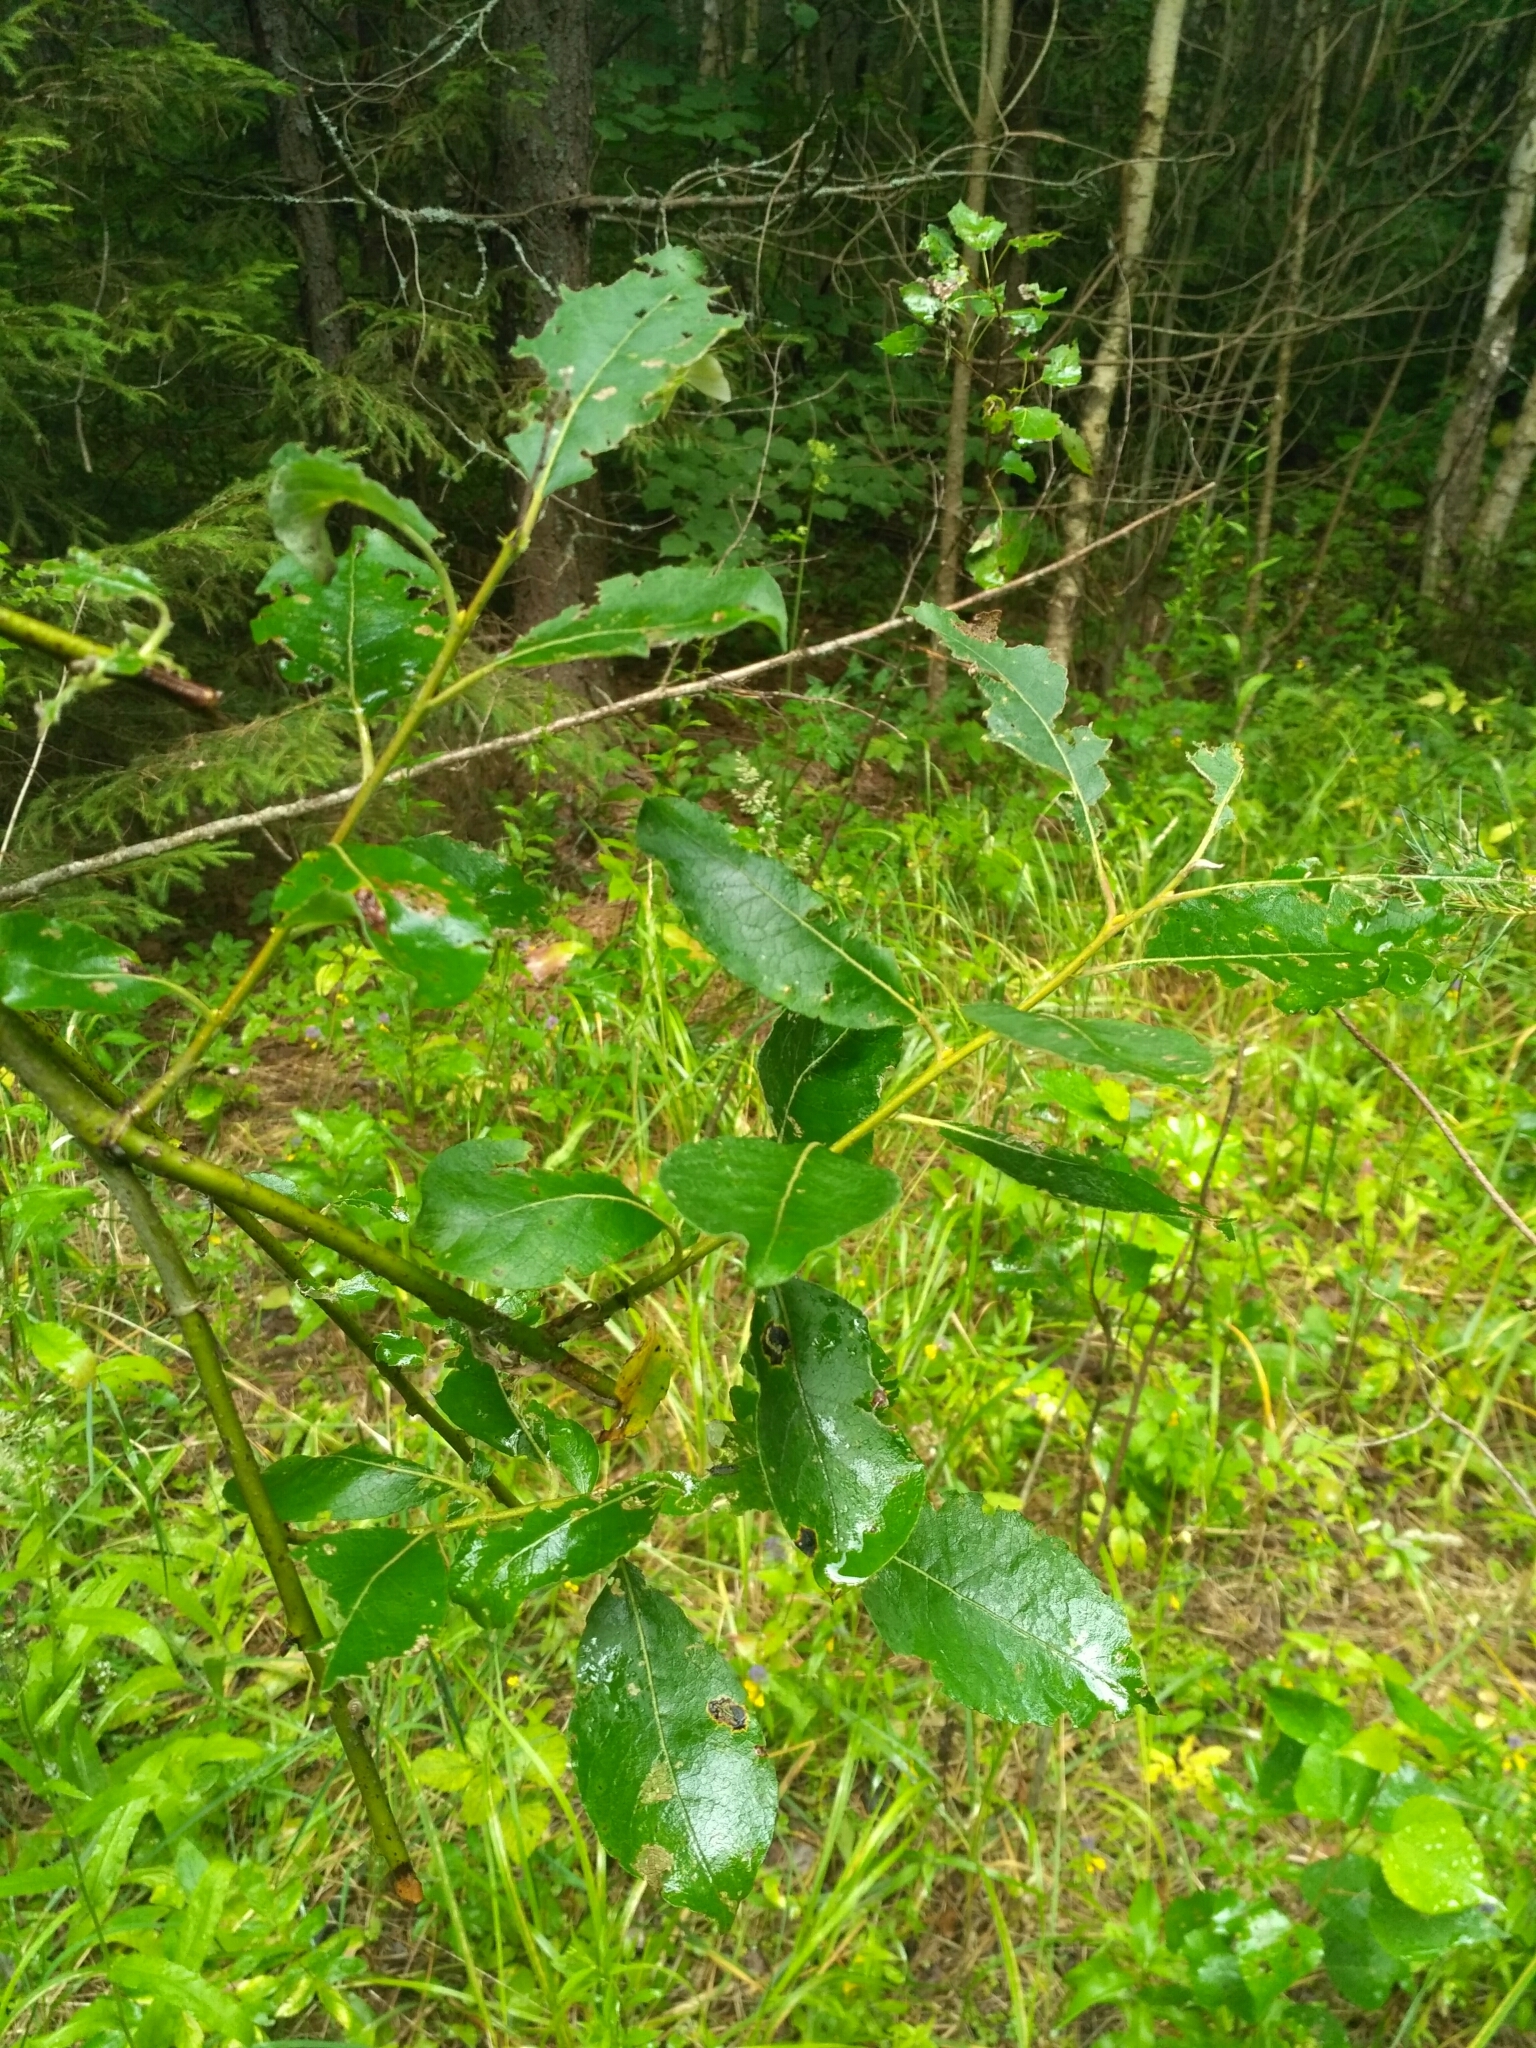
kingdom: Plantae
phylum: Tracheophyta
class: Magnoliopsida
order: Malpighiales
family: Salicaceae
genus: Salix
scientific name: Salix myrsinifolia
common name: Dark-leaved willow
